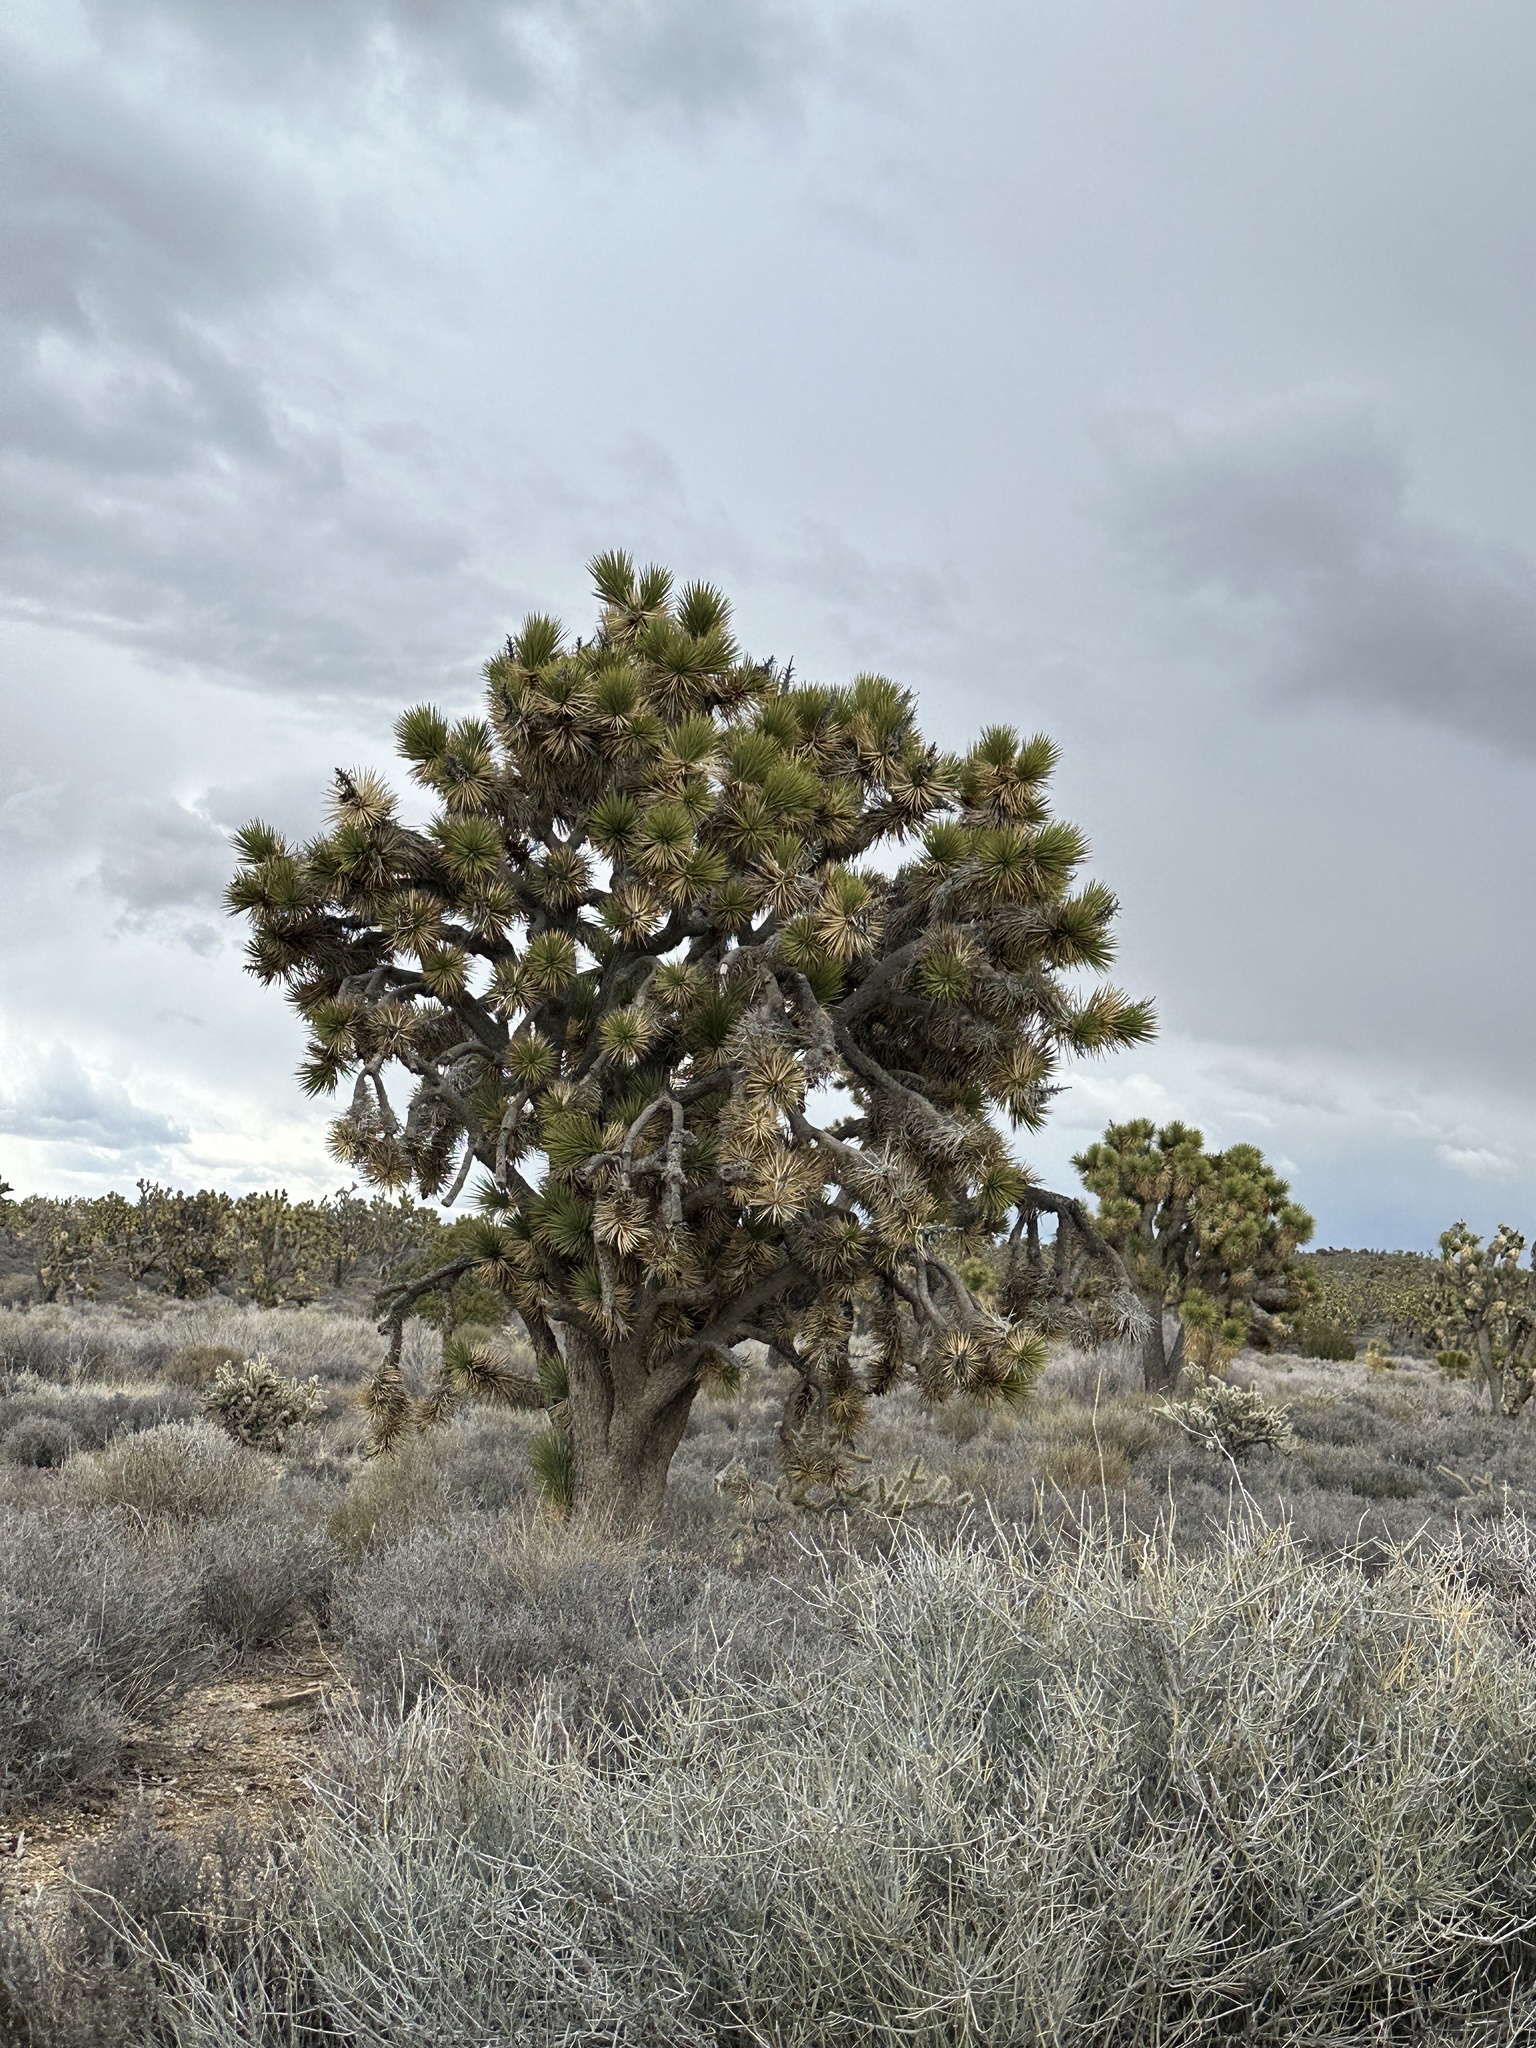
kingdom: Plantae
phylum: Tracheophyta
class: Liliopsida
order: Asparagales
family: Asparagaceae
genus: Yucca
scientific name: Yucca brevifolia
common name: Joshua tree
